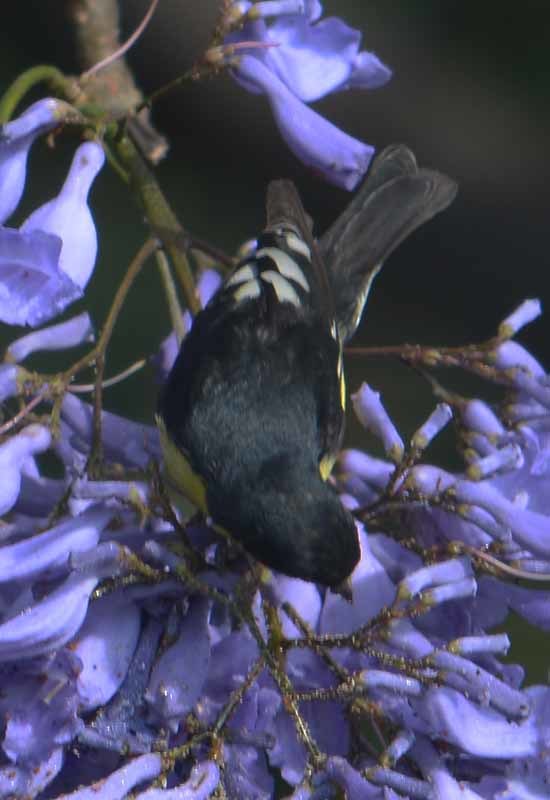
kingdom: Animalia
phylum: Chordata
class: Aves
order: Passeriformes
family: Fringillidae
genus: Spinus
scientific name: Spinus psaltria
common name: Lesser goldfinch
